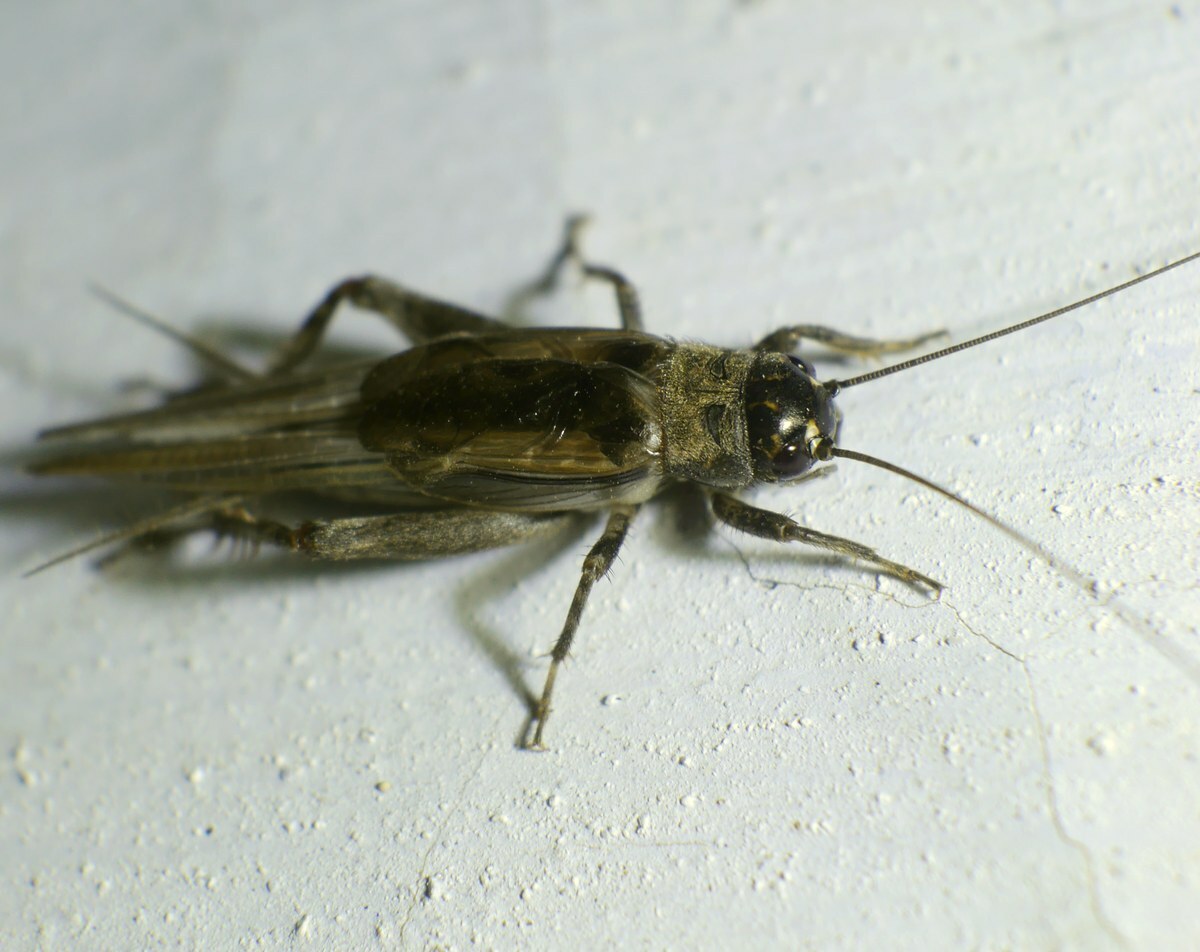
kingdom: Animalia
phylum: Arthropoda
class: Insecta
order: Orthoptera
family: Gryllidae
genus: Eumodicogryllus
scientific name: Eumodicogryllus bordigalensis
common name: Bordeaux cricket
